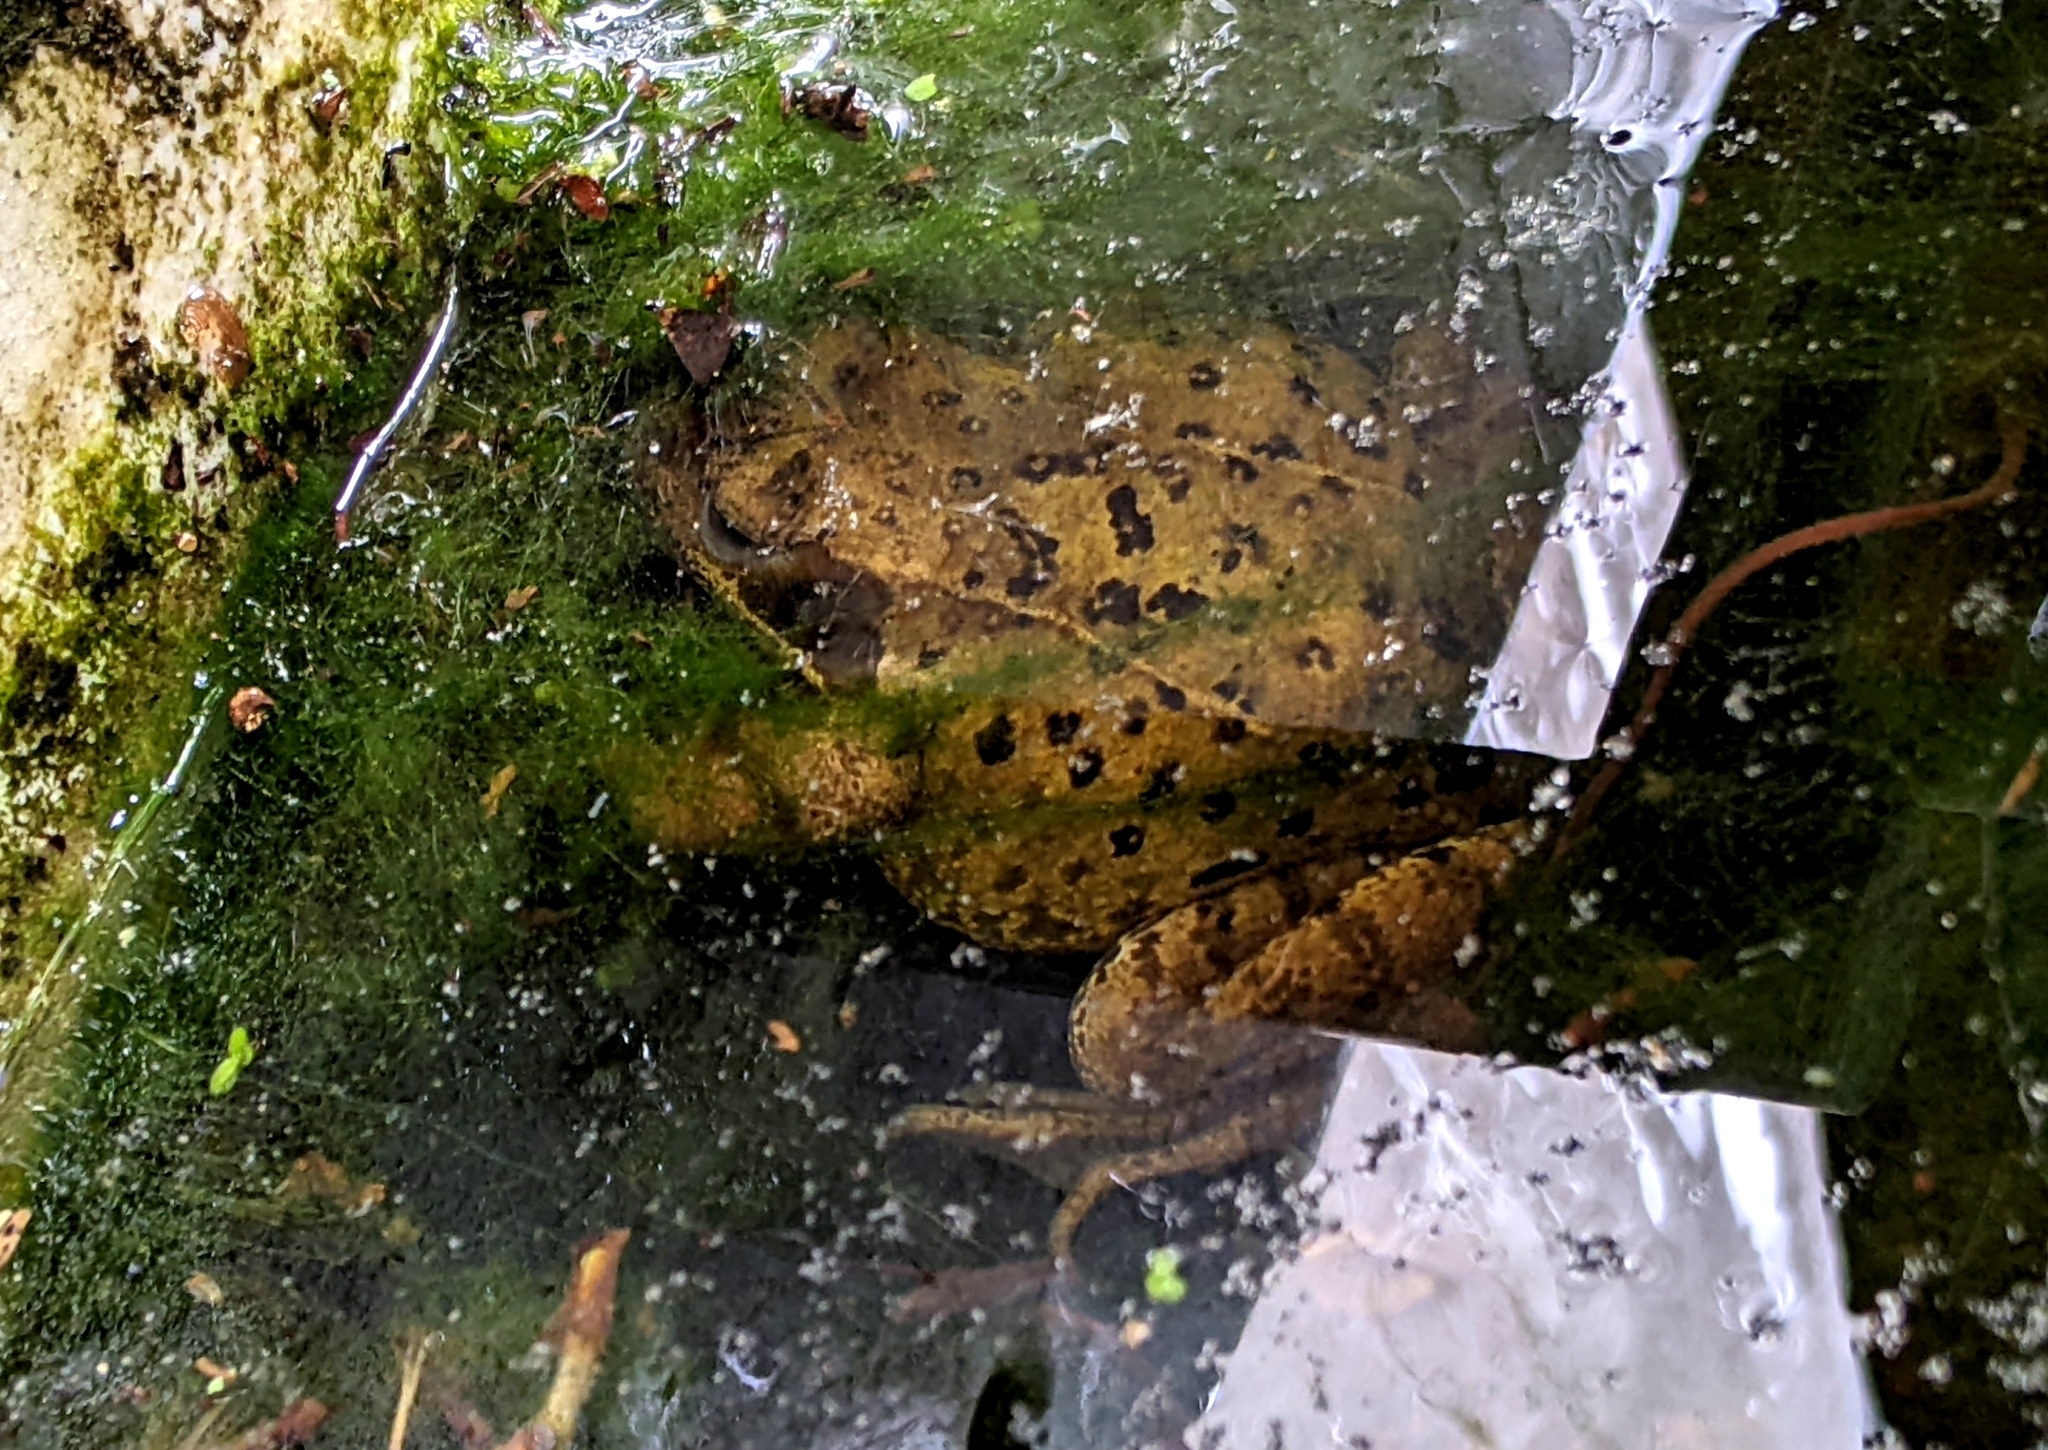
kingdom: Animalia
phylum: Chordata
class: Amphibia
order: Anura
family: Ranidae
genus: Rana
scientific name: Rana temporaria
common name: Common frog
